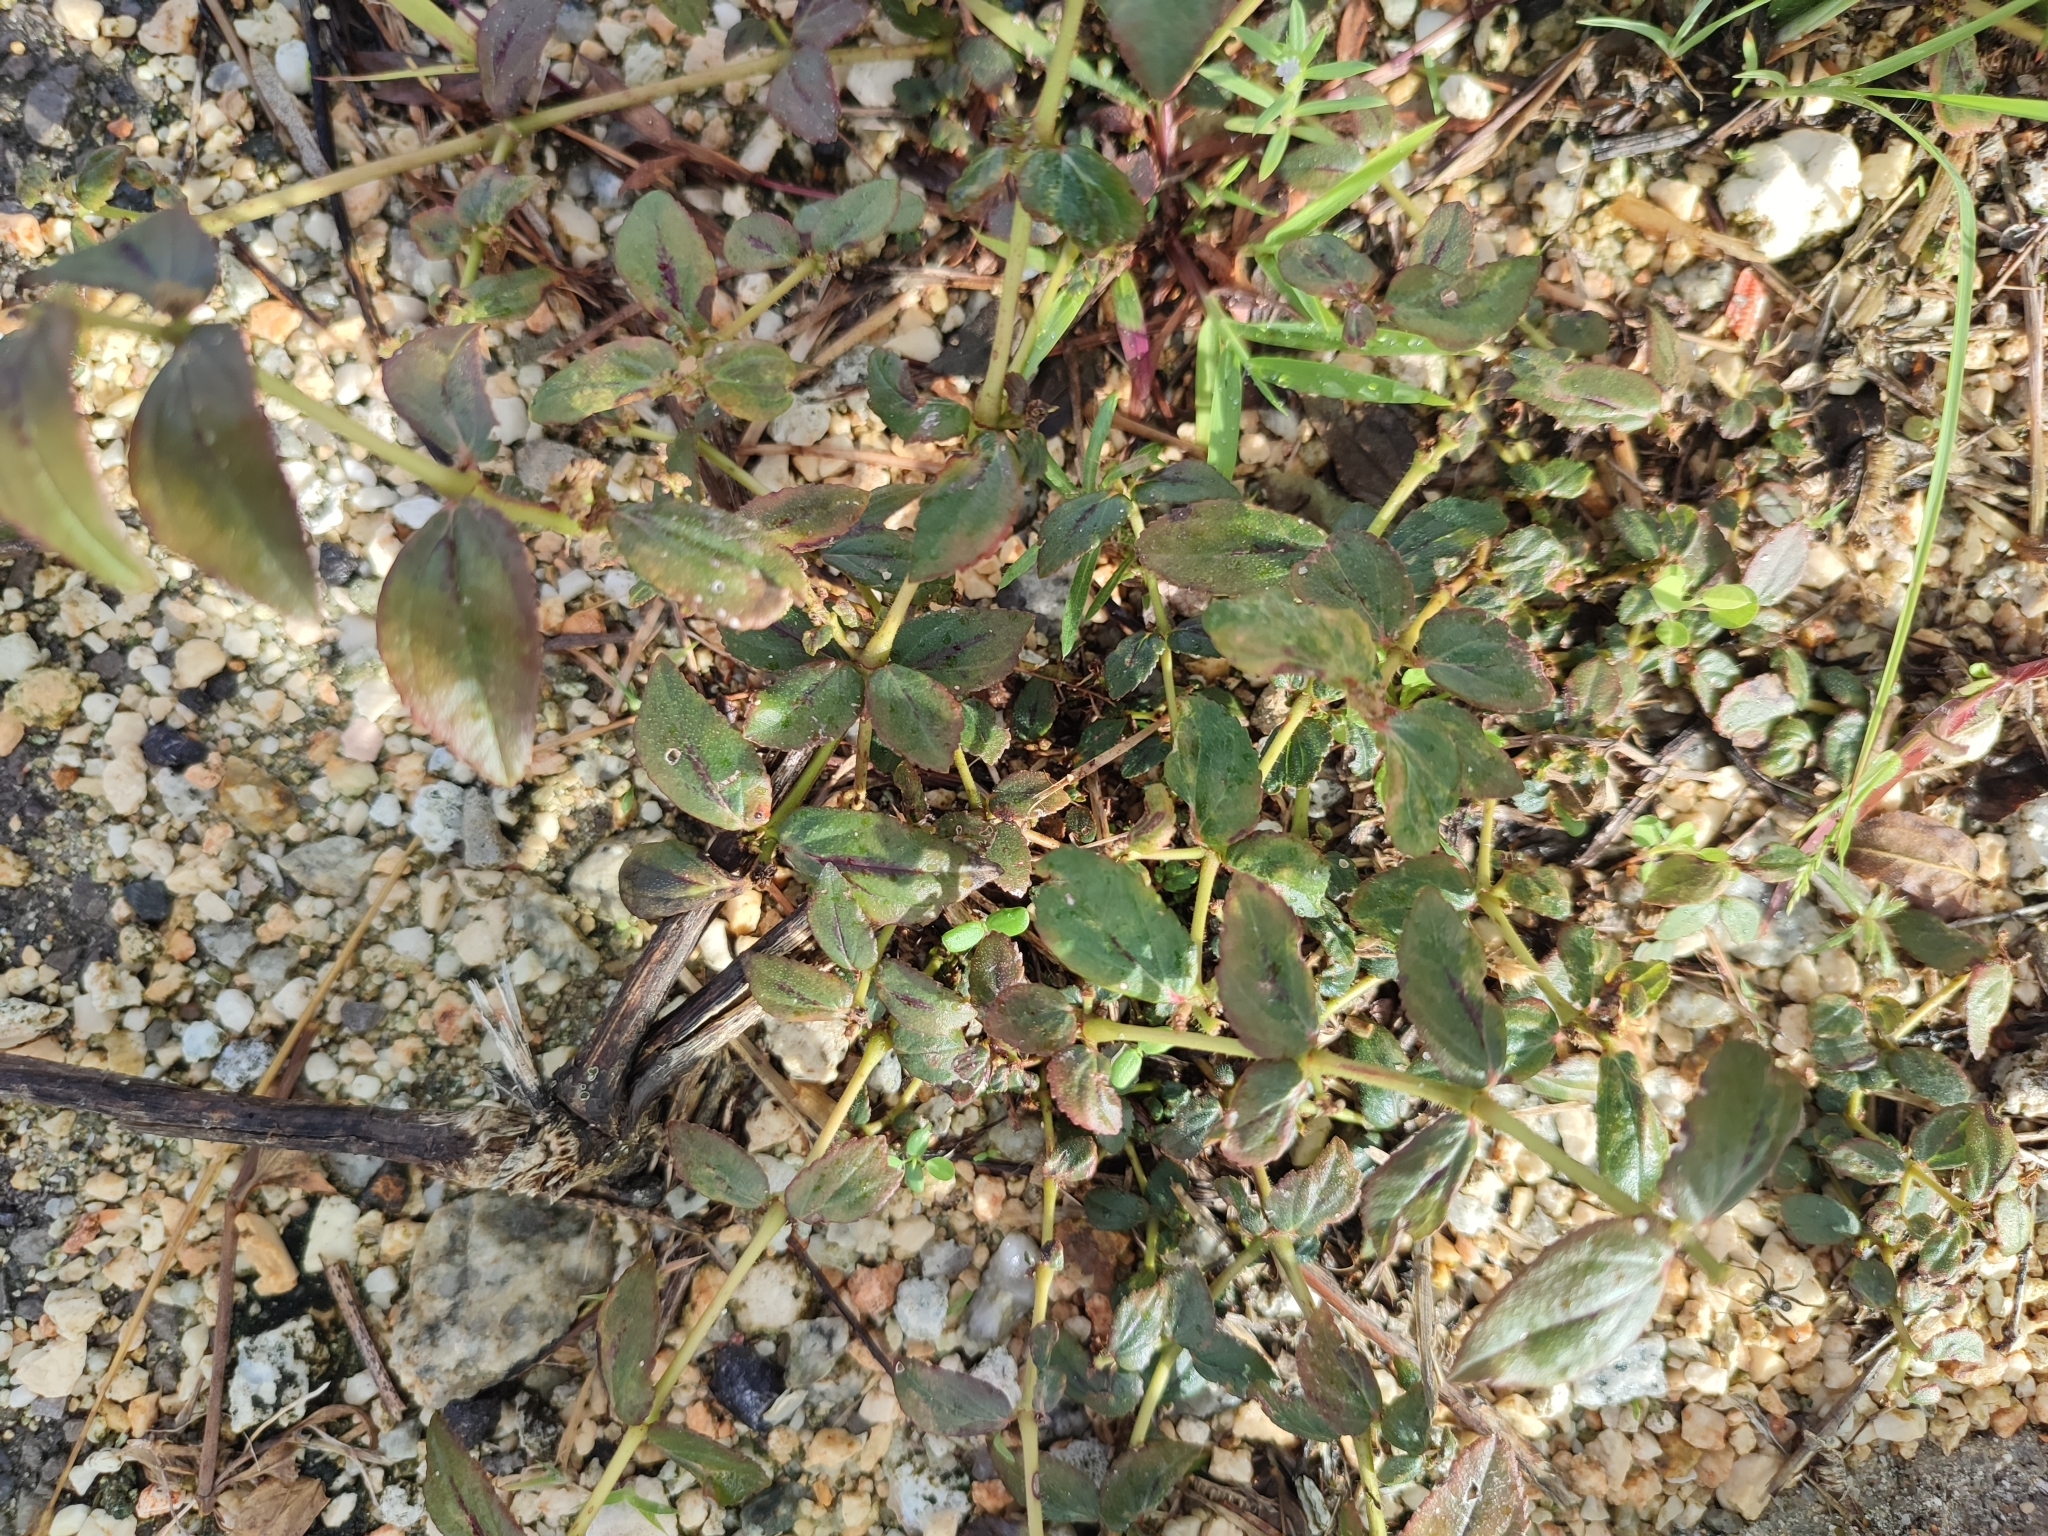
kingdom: Plantae
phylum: Tracheophyta
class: Magnoliopsida
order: Malpighiales
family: Euphorbiaceae
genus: Euphorbia
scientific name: Euphorbia hirta
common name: Pillpod sandmat
